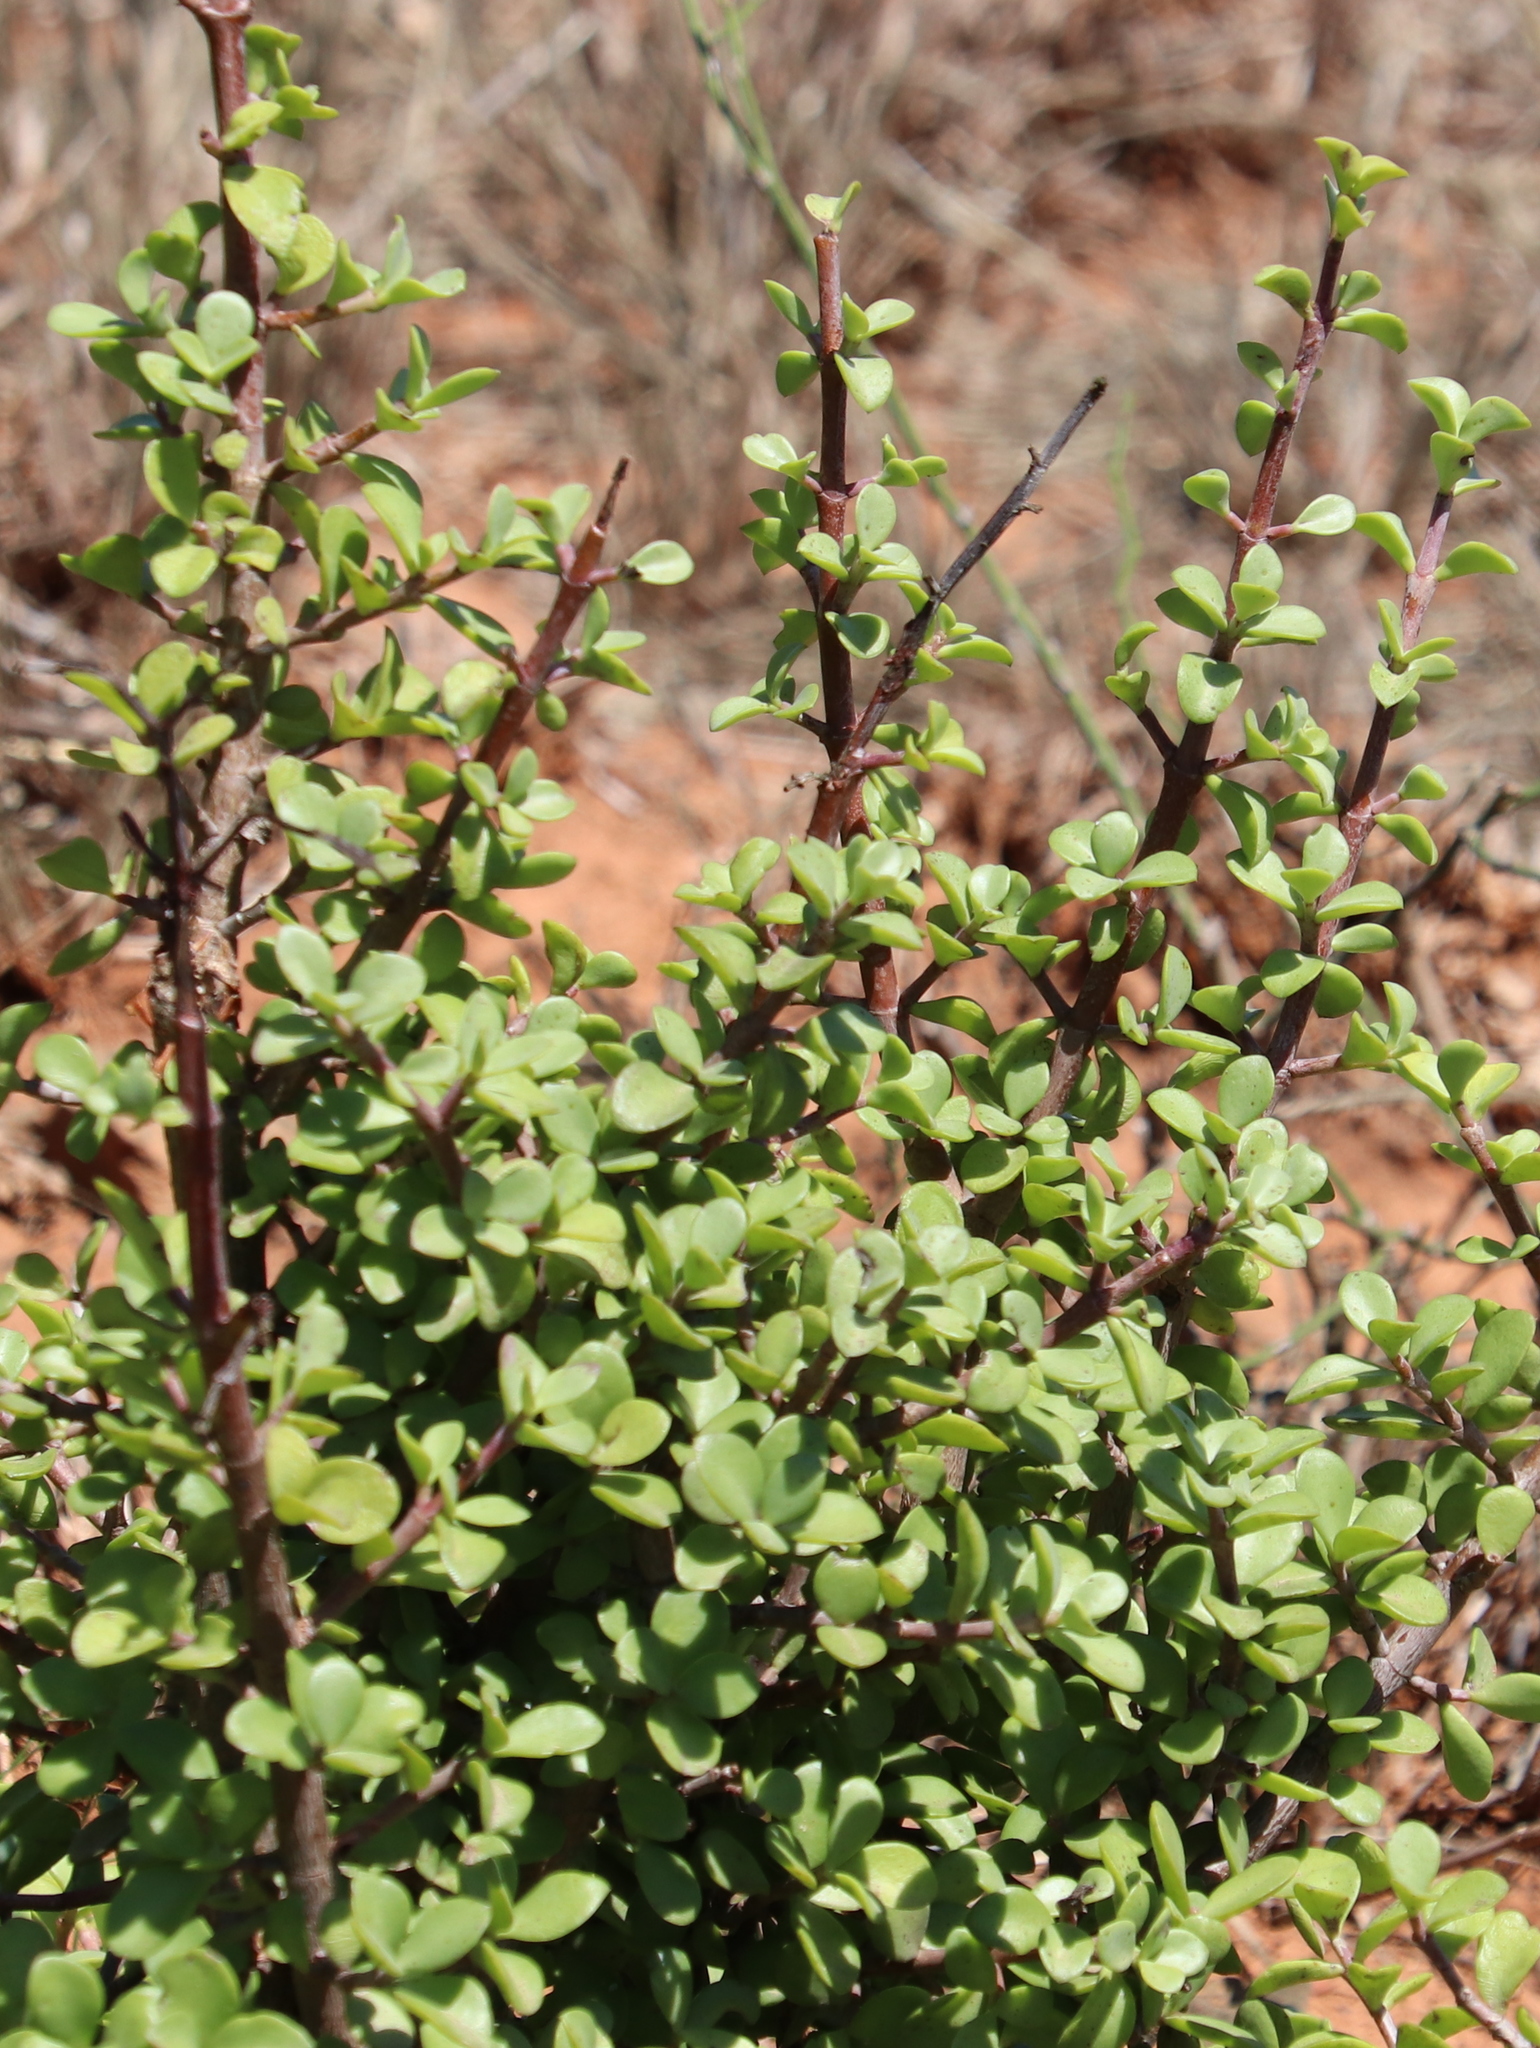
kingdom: Plantae
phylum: Tracheophyta
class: Magnoliopsida
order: Caryophyllales
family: Didiereaceae
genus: Portulacaria
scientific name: Portulacaria afra
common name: Elephant-bush
